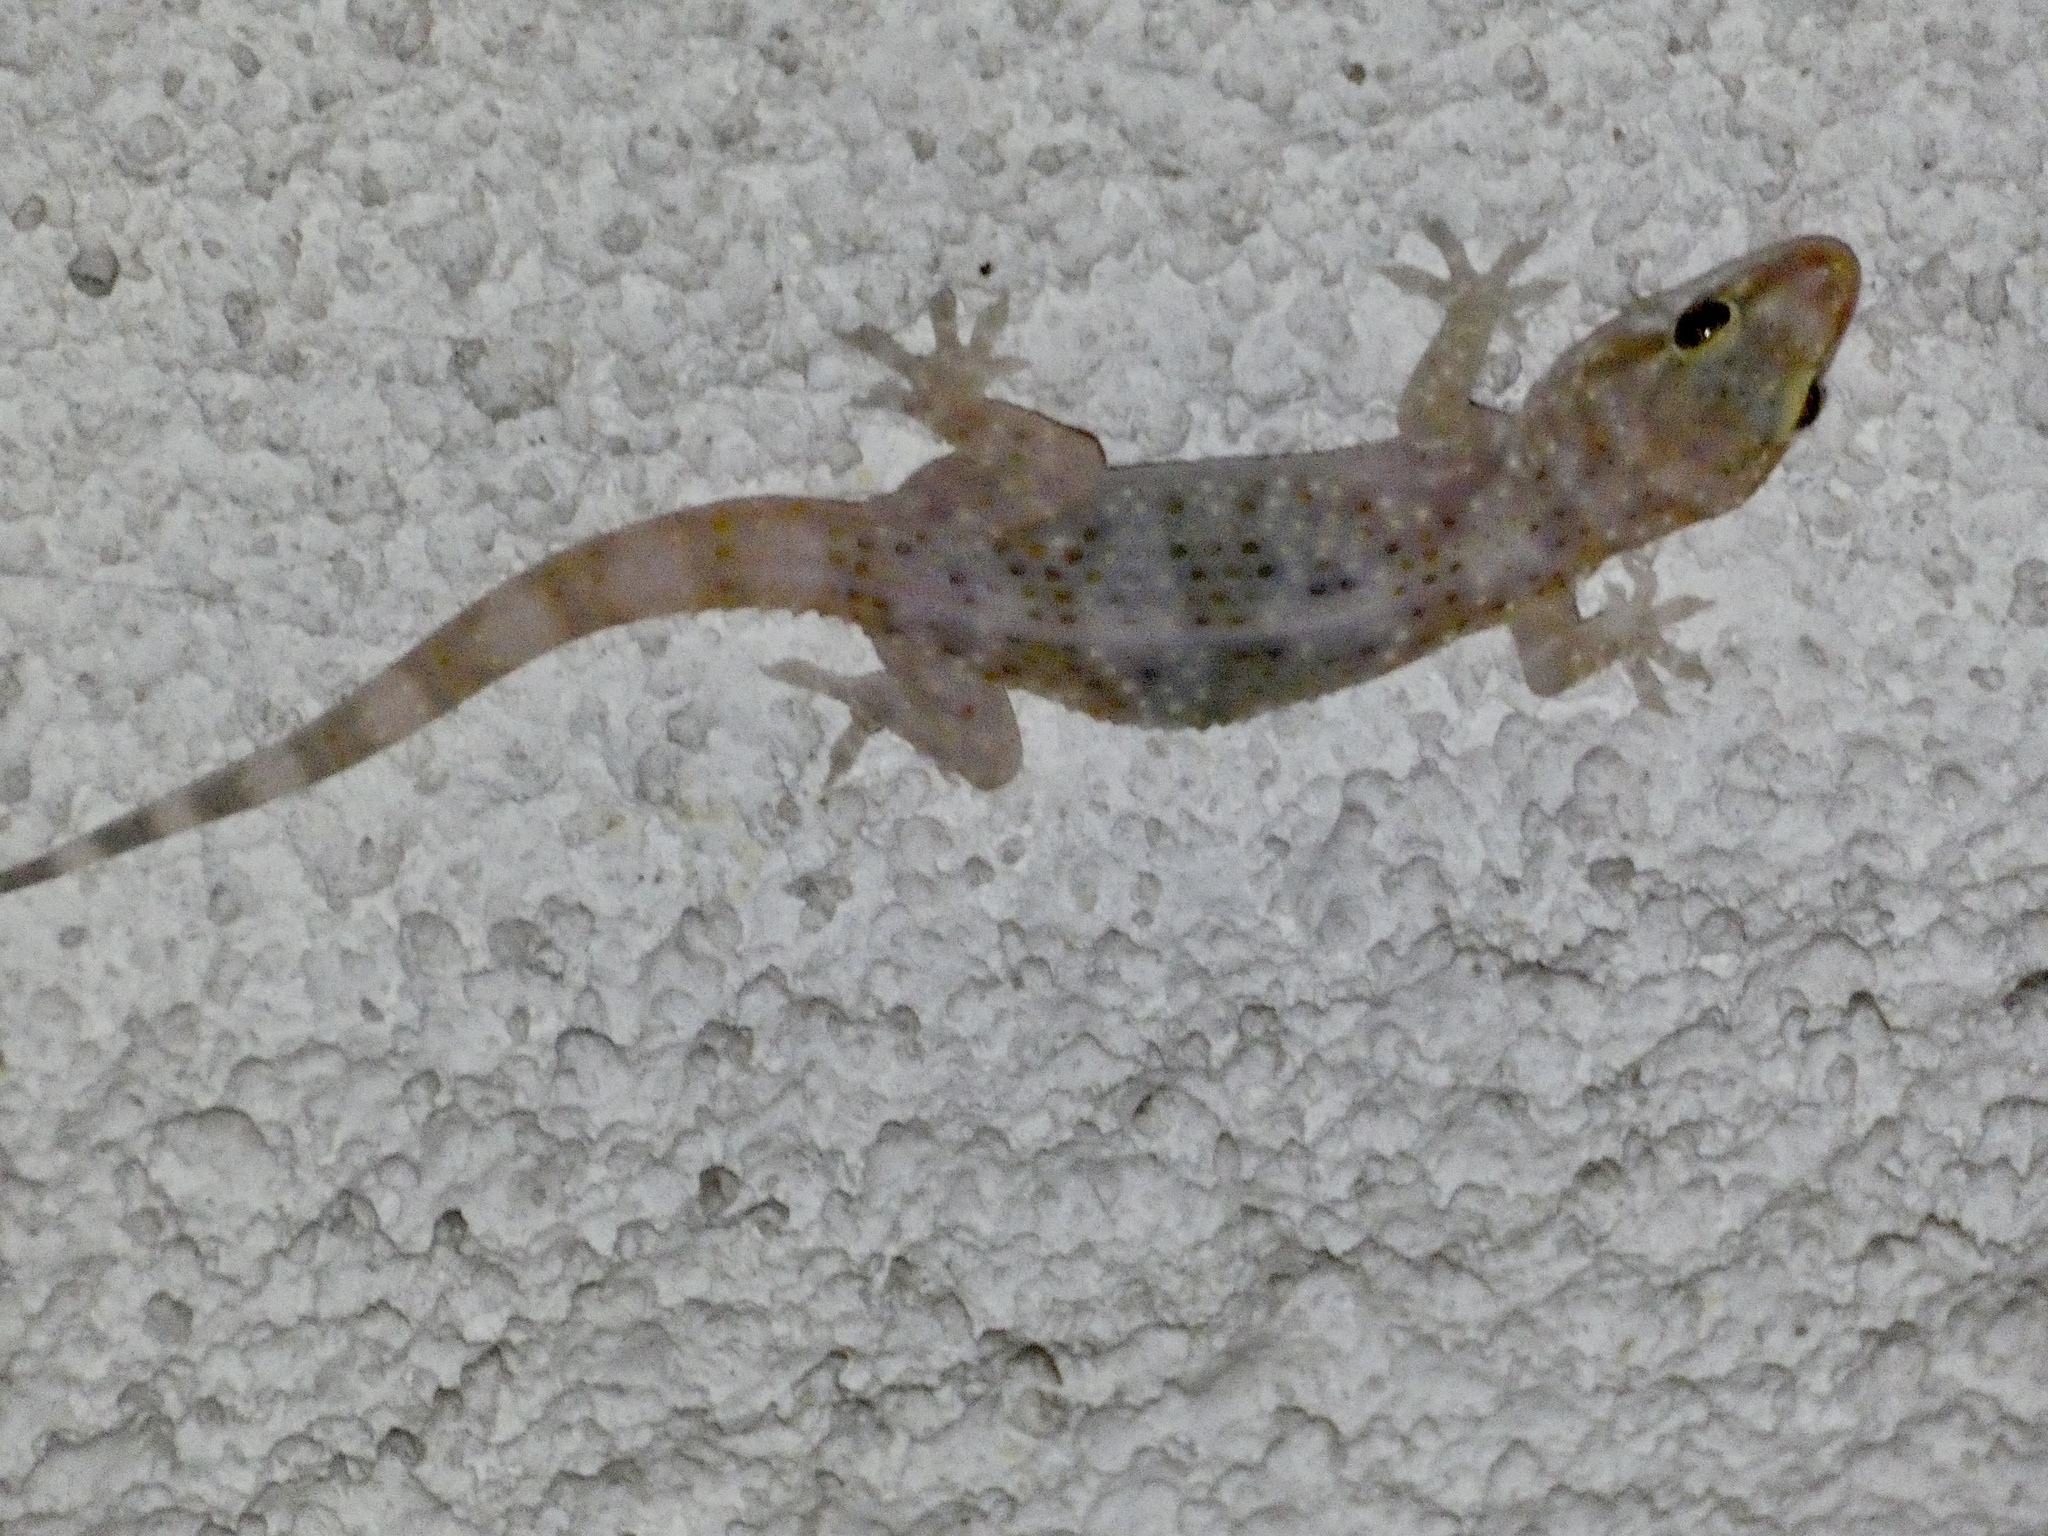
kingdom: Animalia
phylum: Chordata
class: Squamata
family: Gekkonidae
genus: Hemidactylus
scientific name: Hemidactylus turcicus
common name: Turkish gecko
